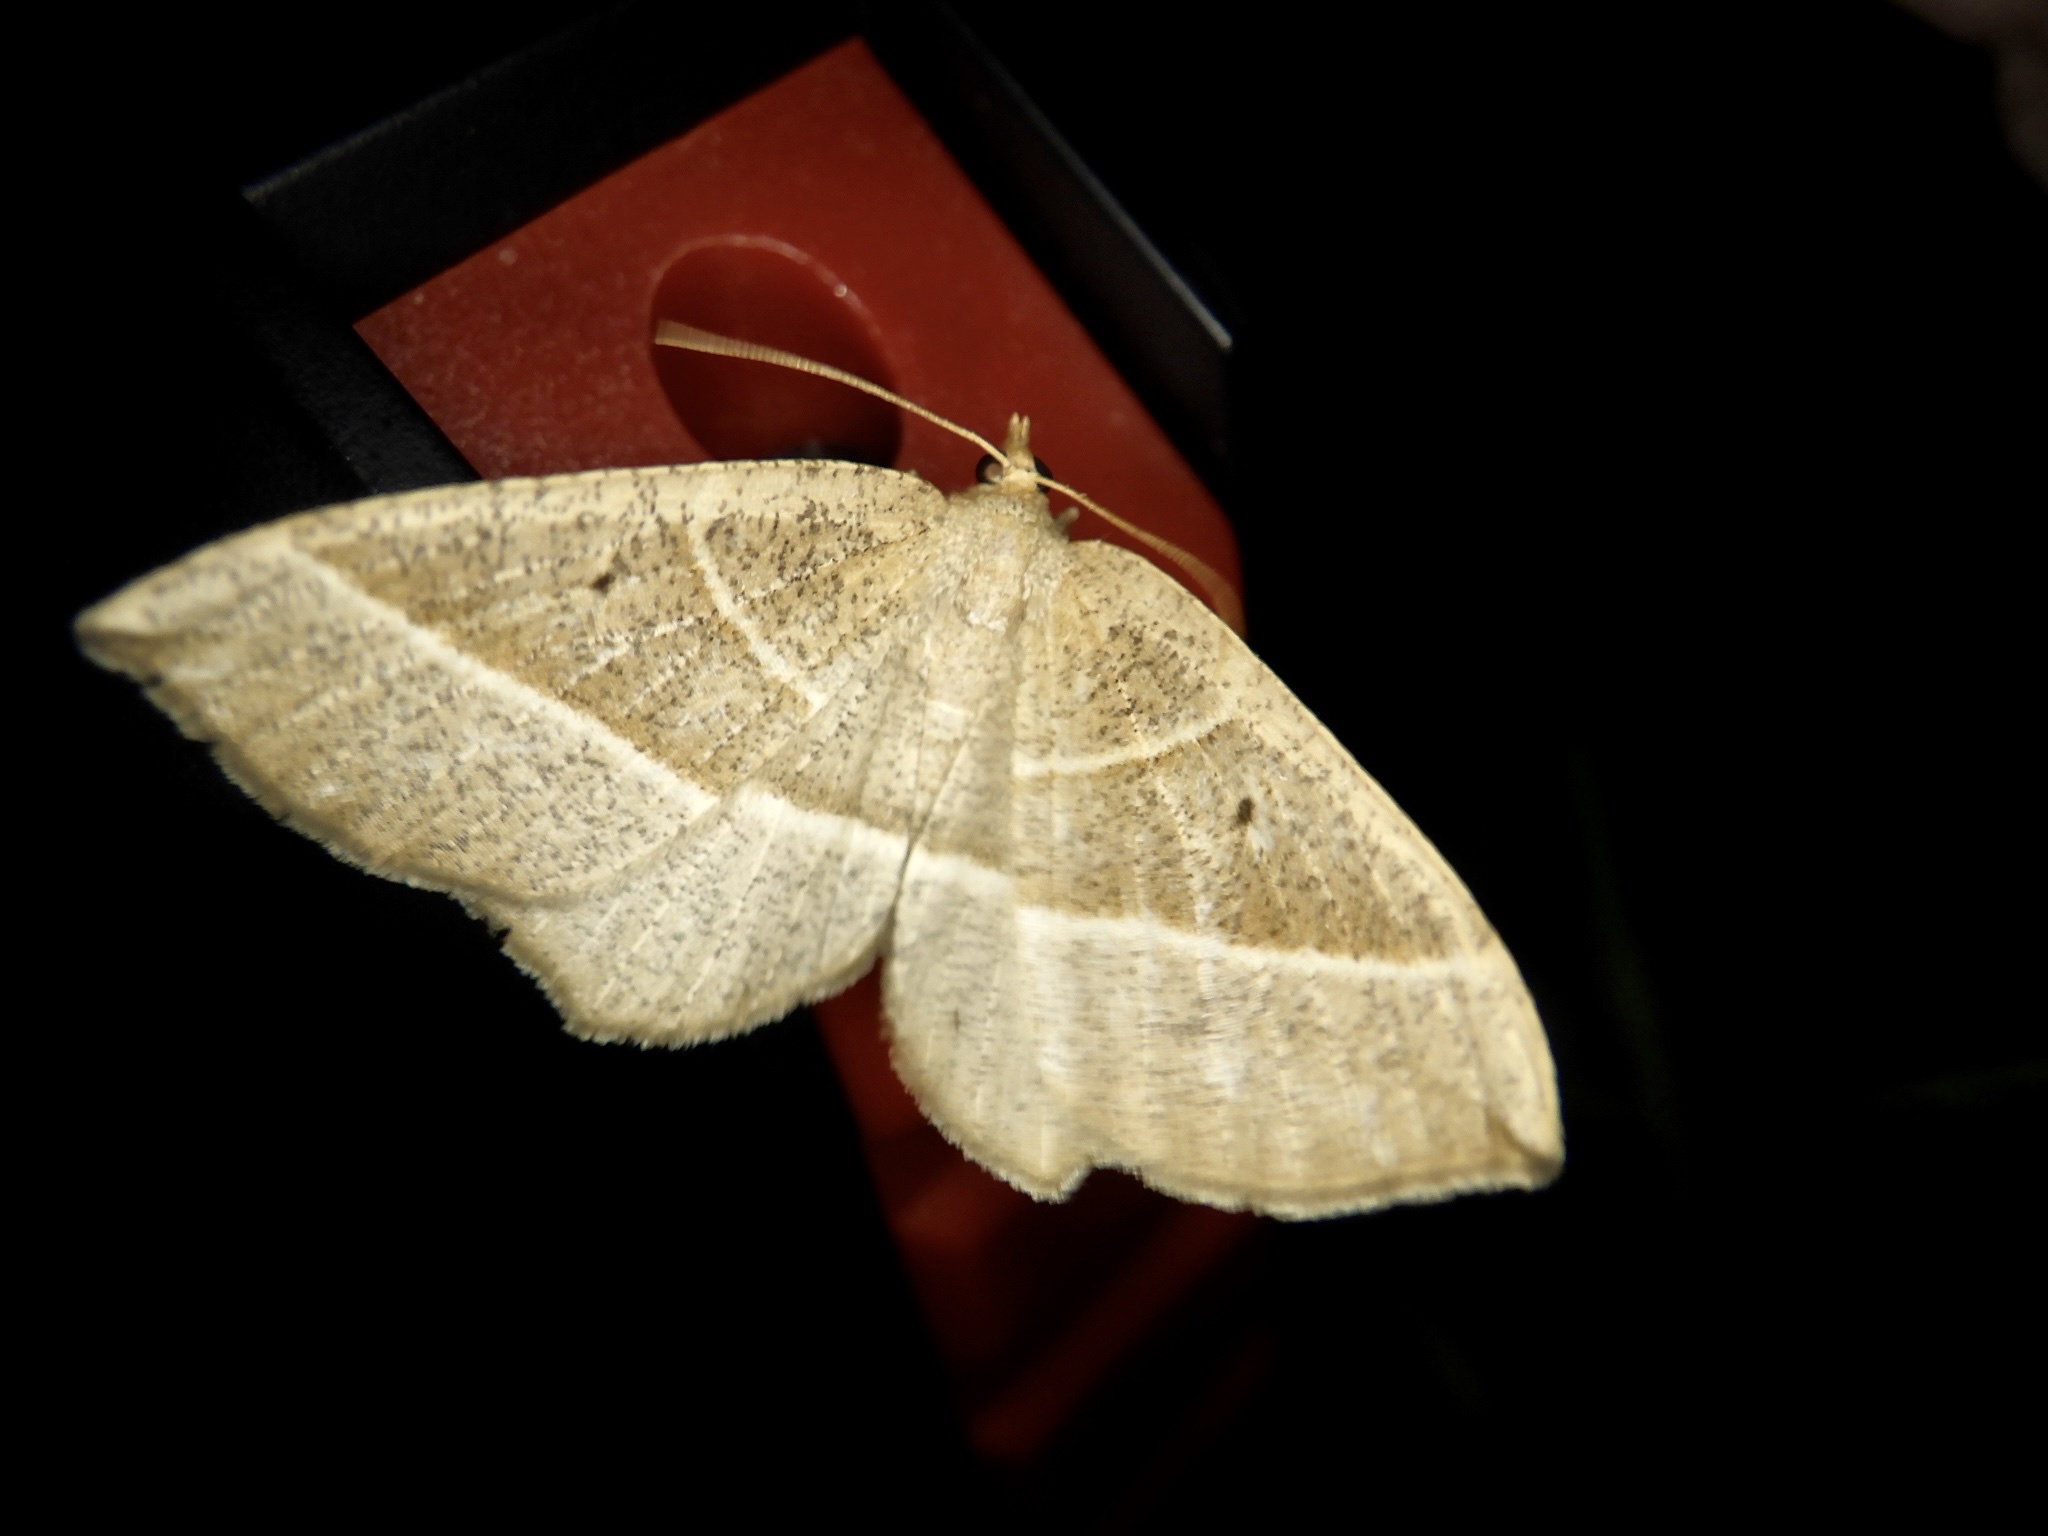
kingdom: Animalia
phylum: Arthropoda
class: Insecta
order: Lepidoptera
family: Geometridae
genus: Rhynchobapta
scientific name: Rhynchobapta cervinaria
